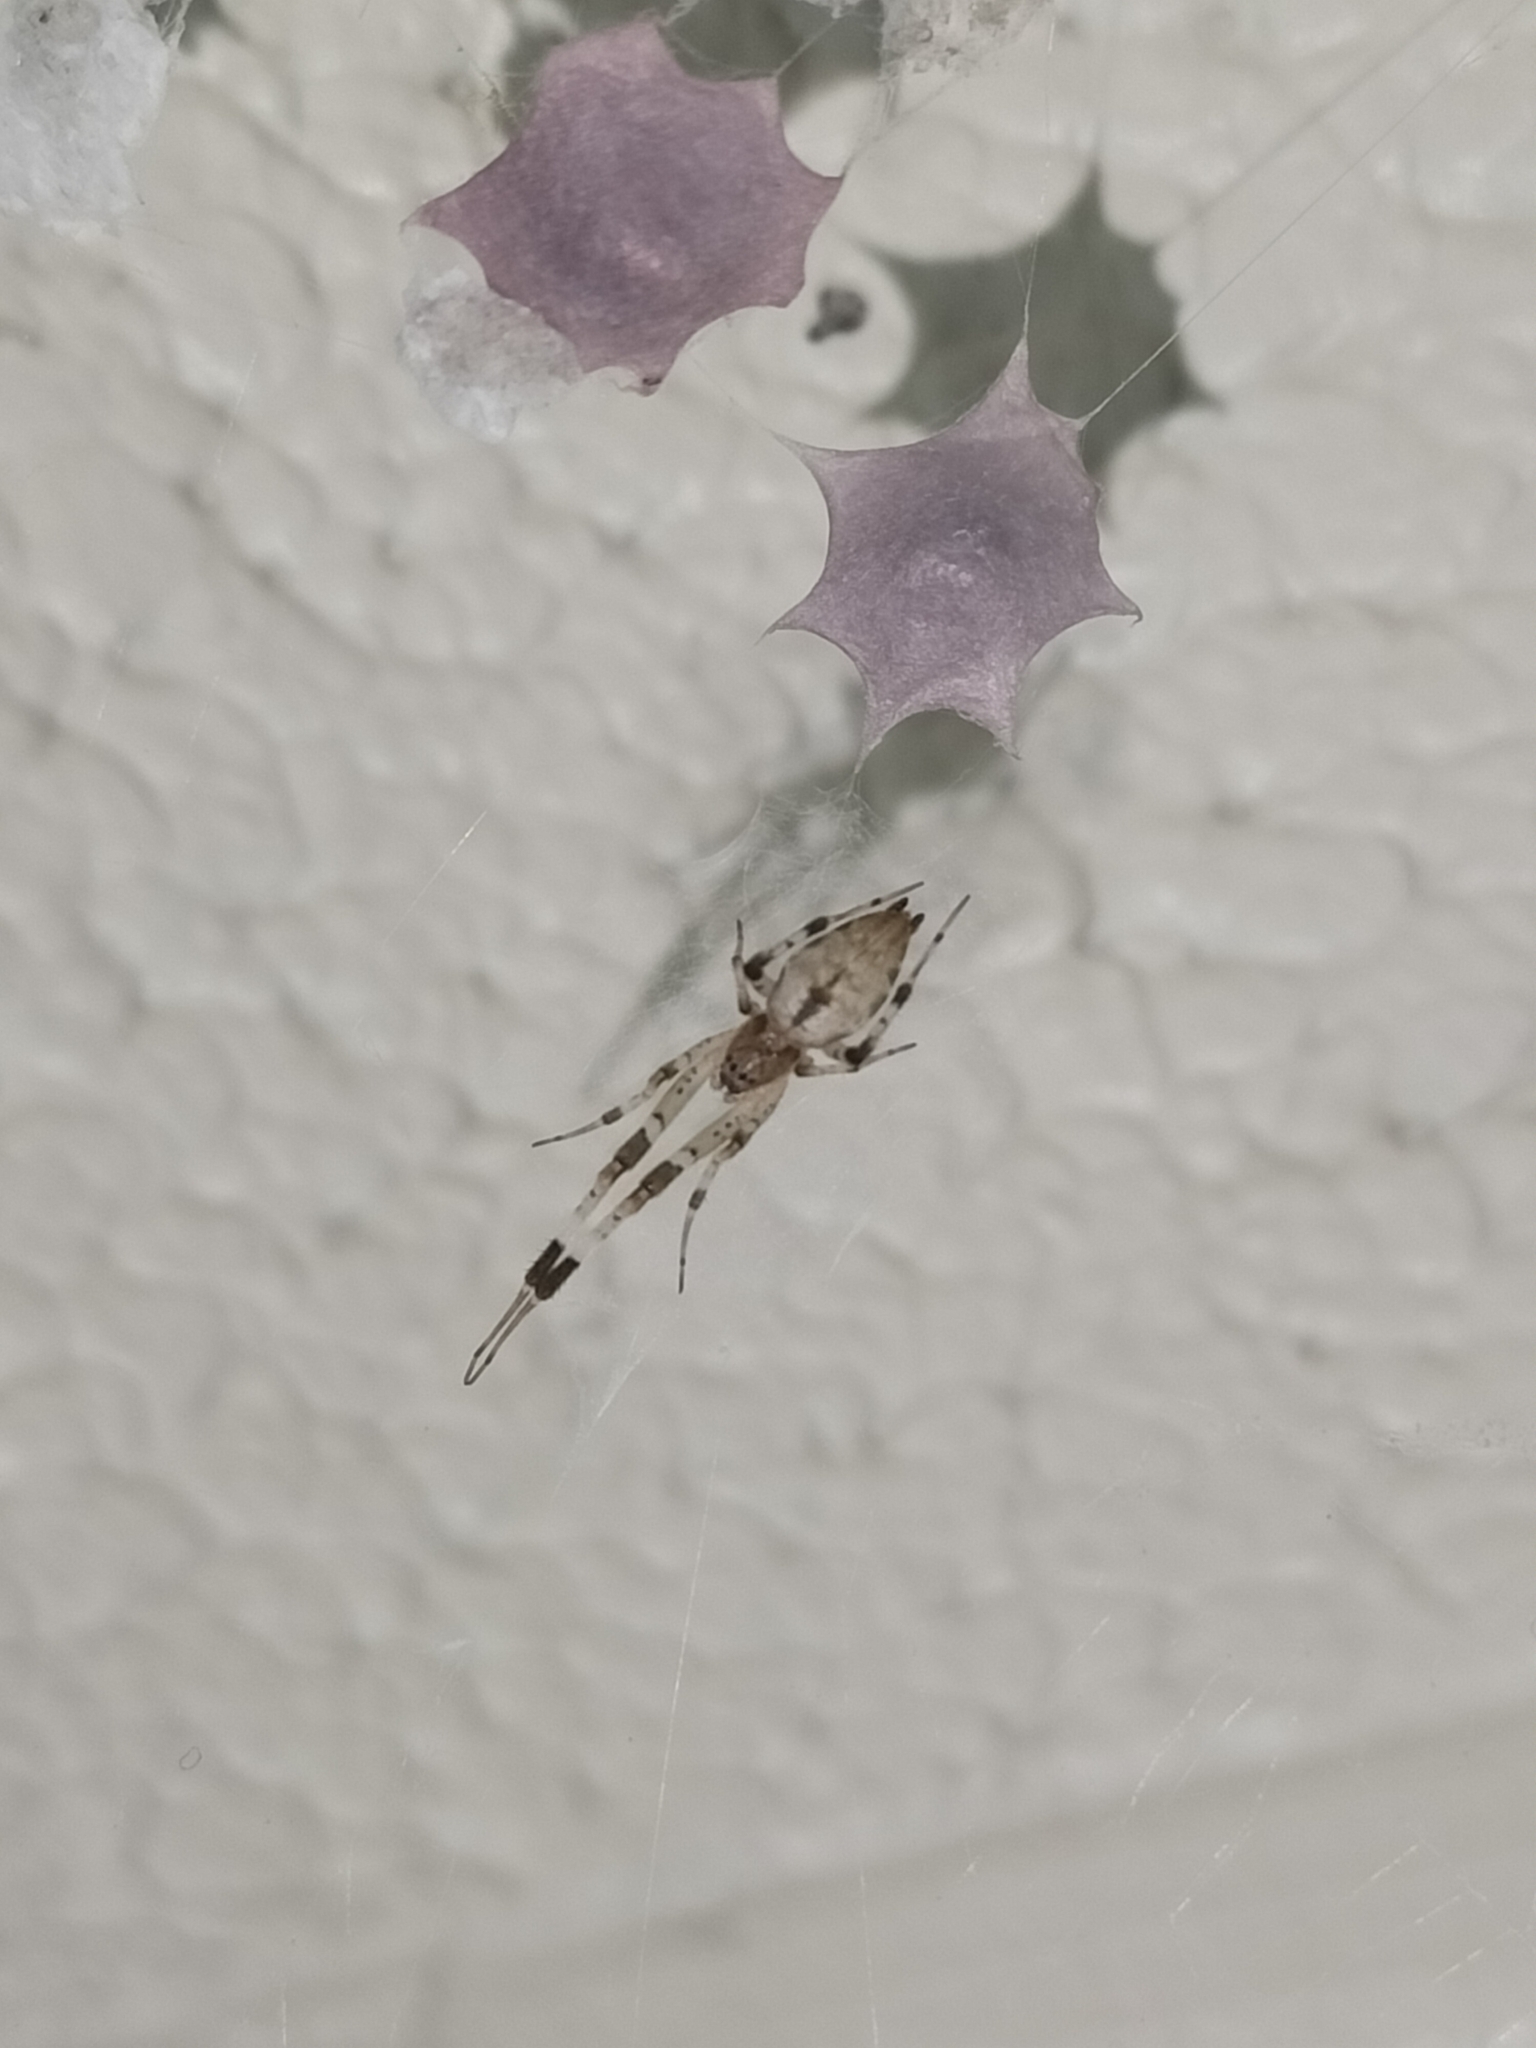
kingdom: Animalia
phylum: Arthropoda
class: Arachnida
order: Araneae
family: Uloboridae
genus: Zosis
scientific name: Zosis geniculata
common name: Hackled orb weavers
